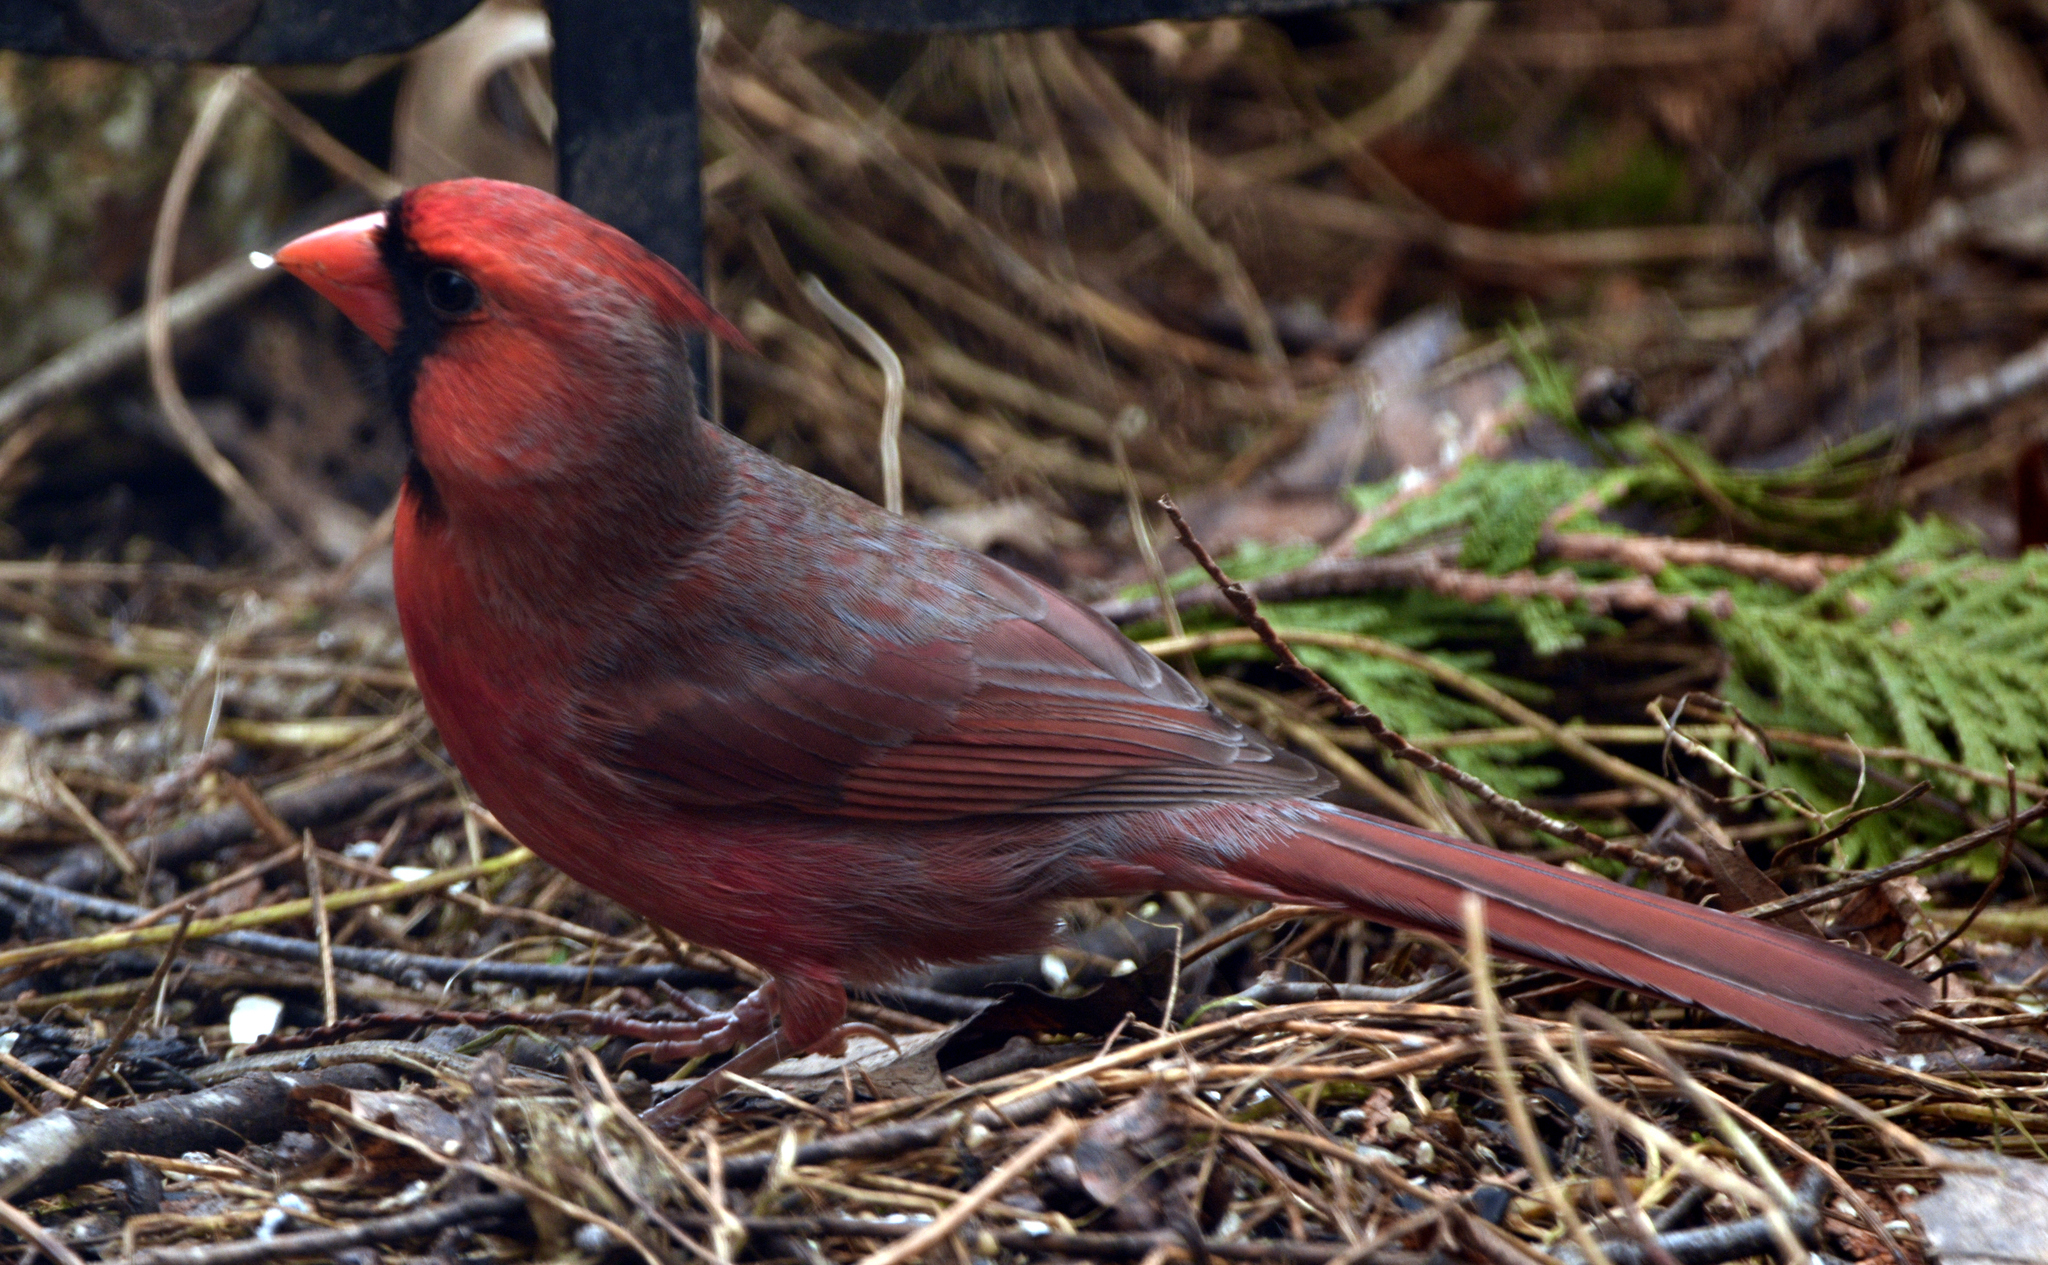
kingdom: Animalia
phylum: Chordata
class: Aves
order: Passeriformes
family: Cardinalidae
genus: Cardinalis
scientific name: Cardinalis cardinalis
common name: Northern cardinal
